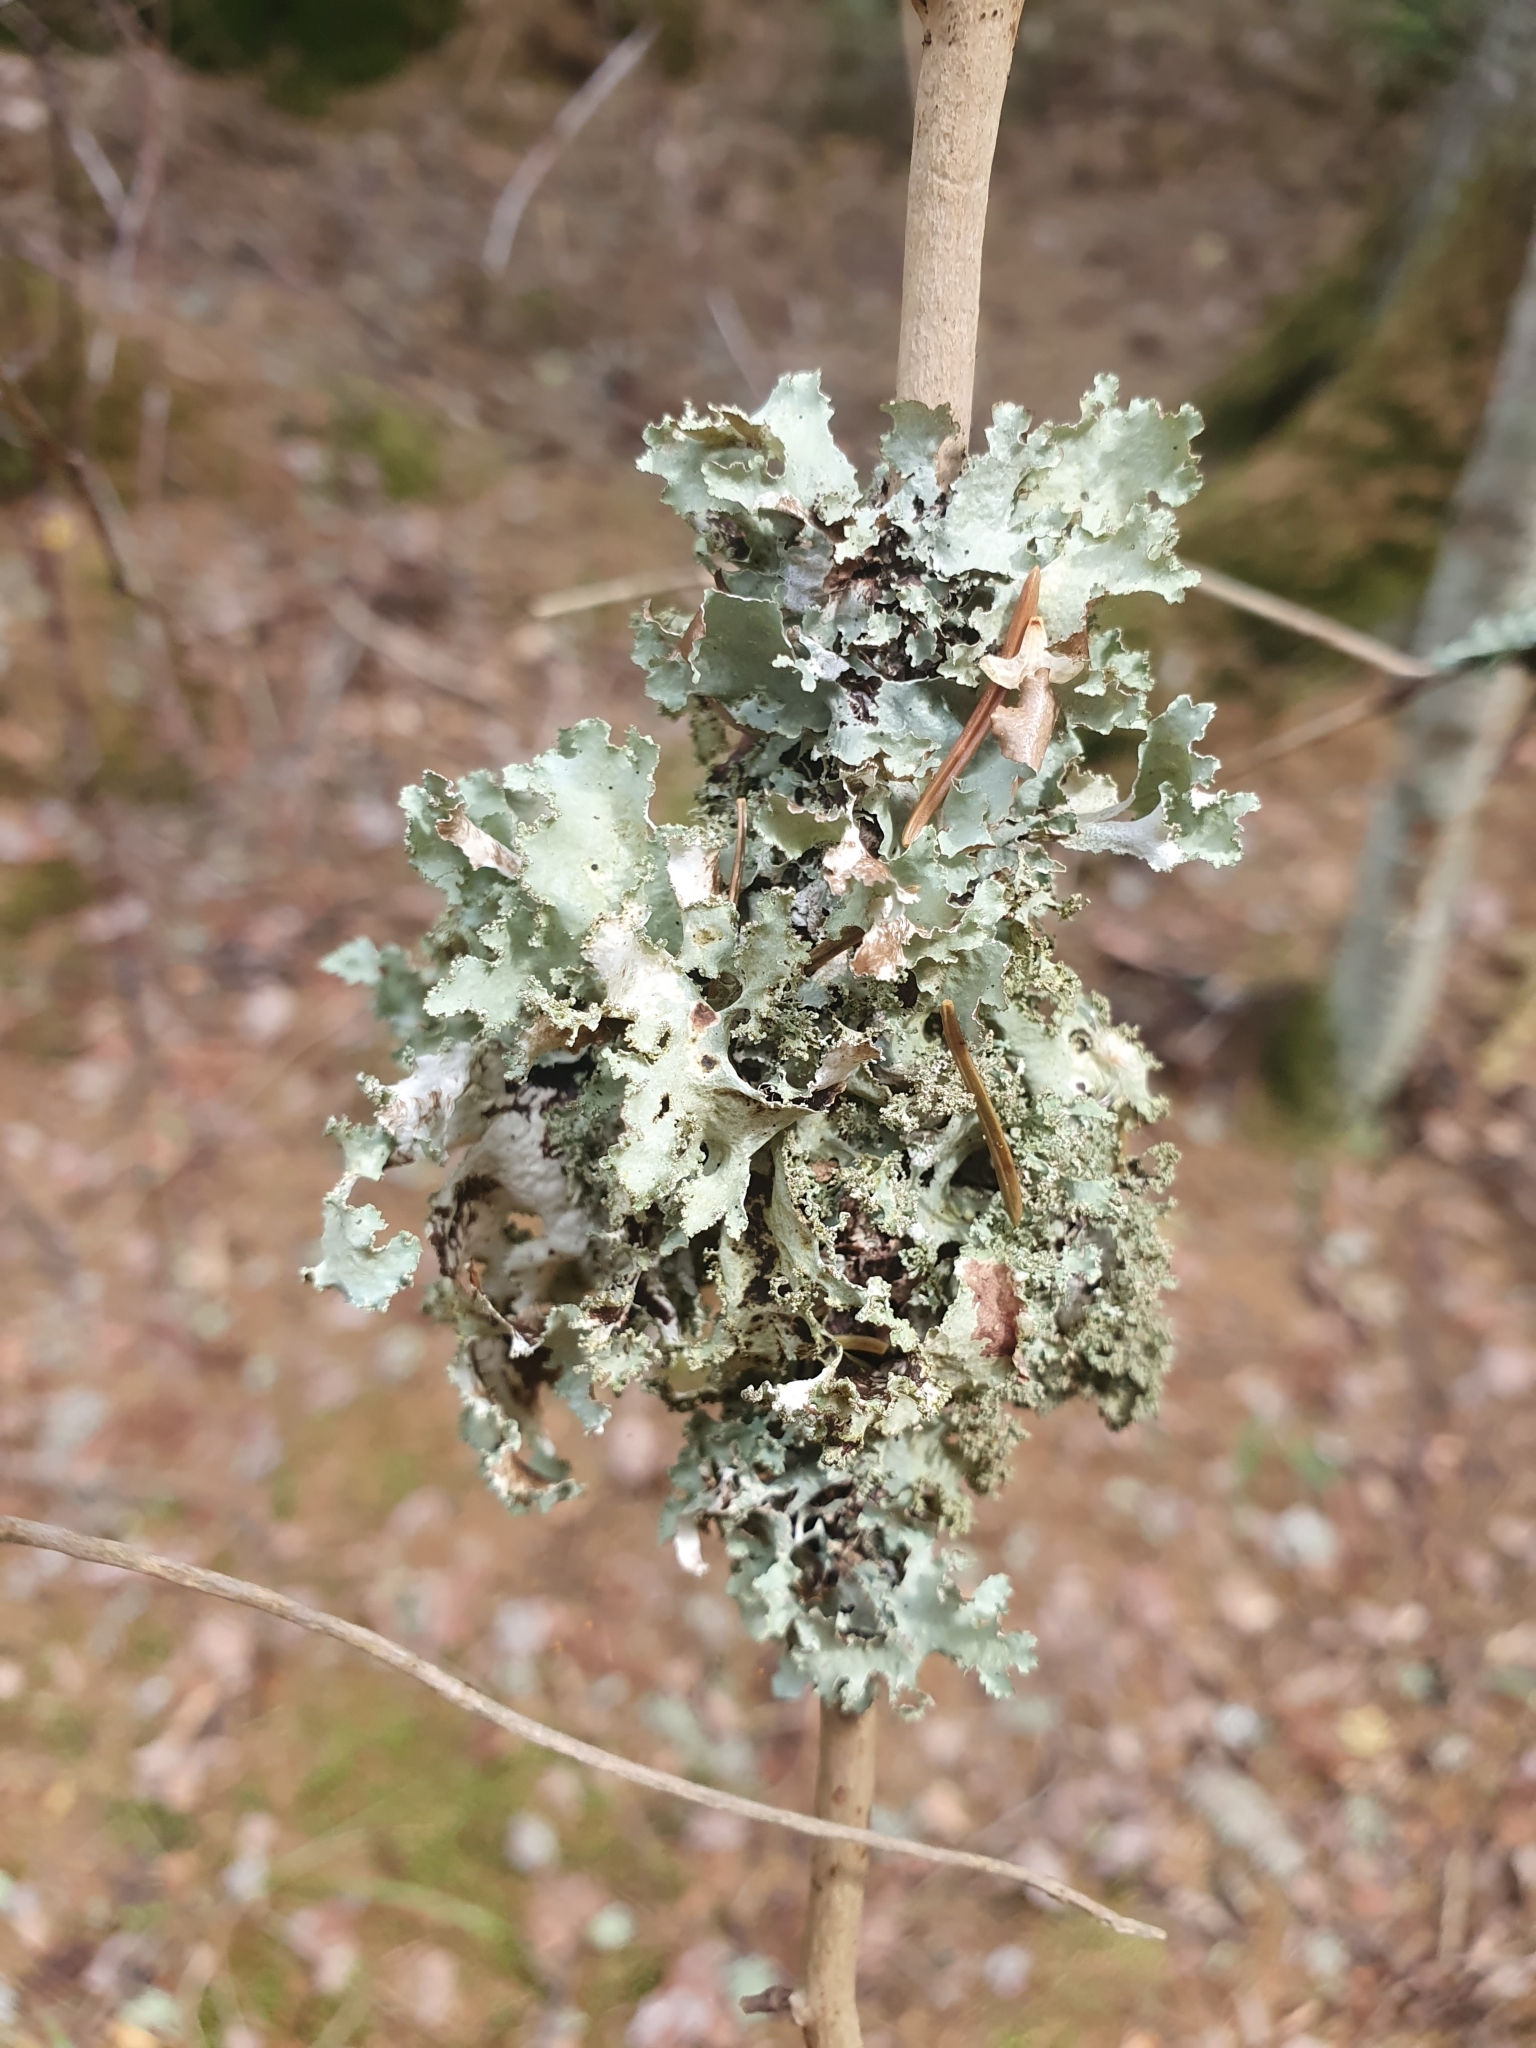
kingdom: Fungi
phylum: Ascomycota
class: Lecanoromycetes
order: Lecanorales
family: Parmeliaceae
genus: Platismatia
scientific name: Platismatia glauca
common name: Varied rag lichen
